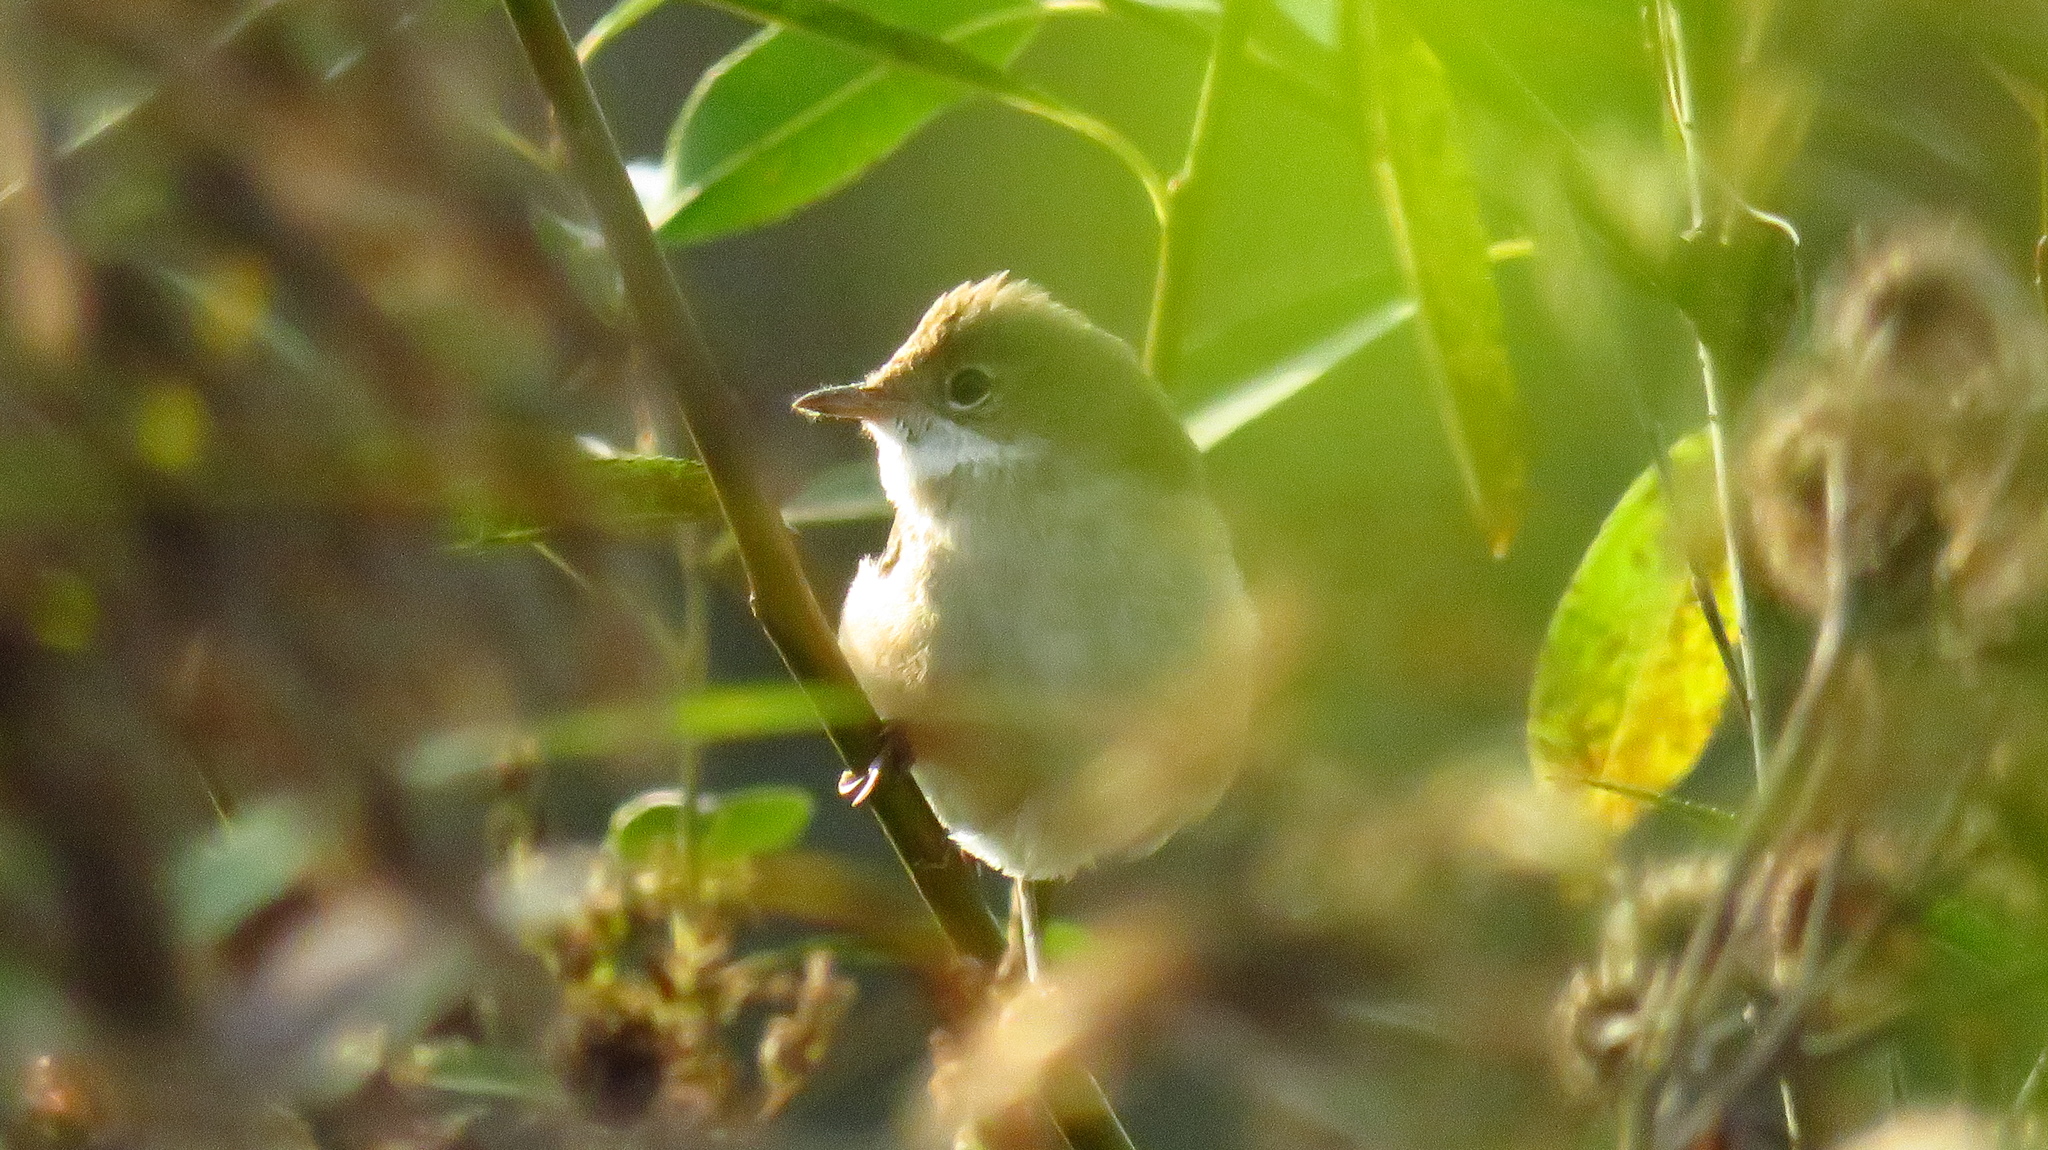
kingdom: Animalia
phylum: Chordata
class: Aves
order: Passeriformes
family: Sylviidae
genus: Sylvia
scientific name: Sylvia communis
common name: Common whitethroat
